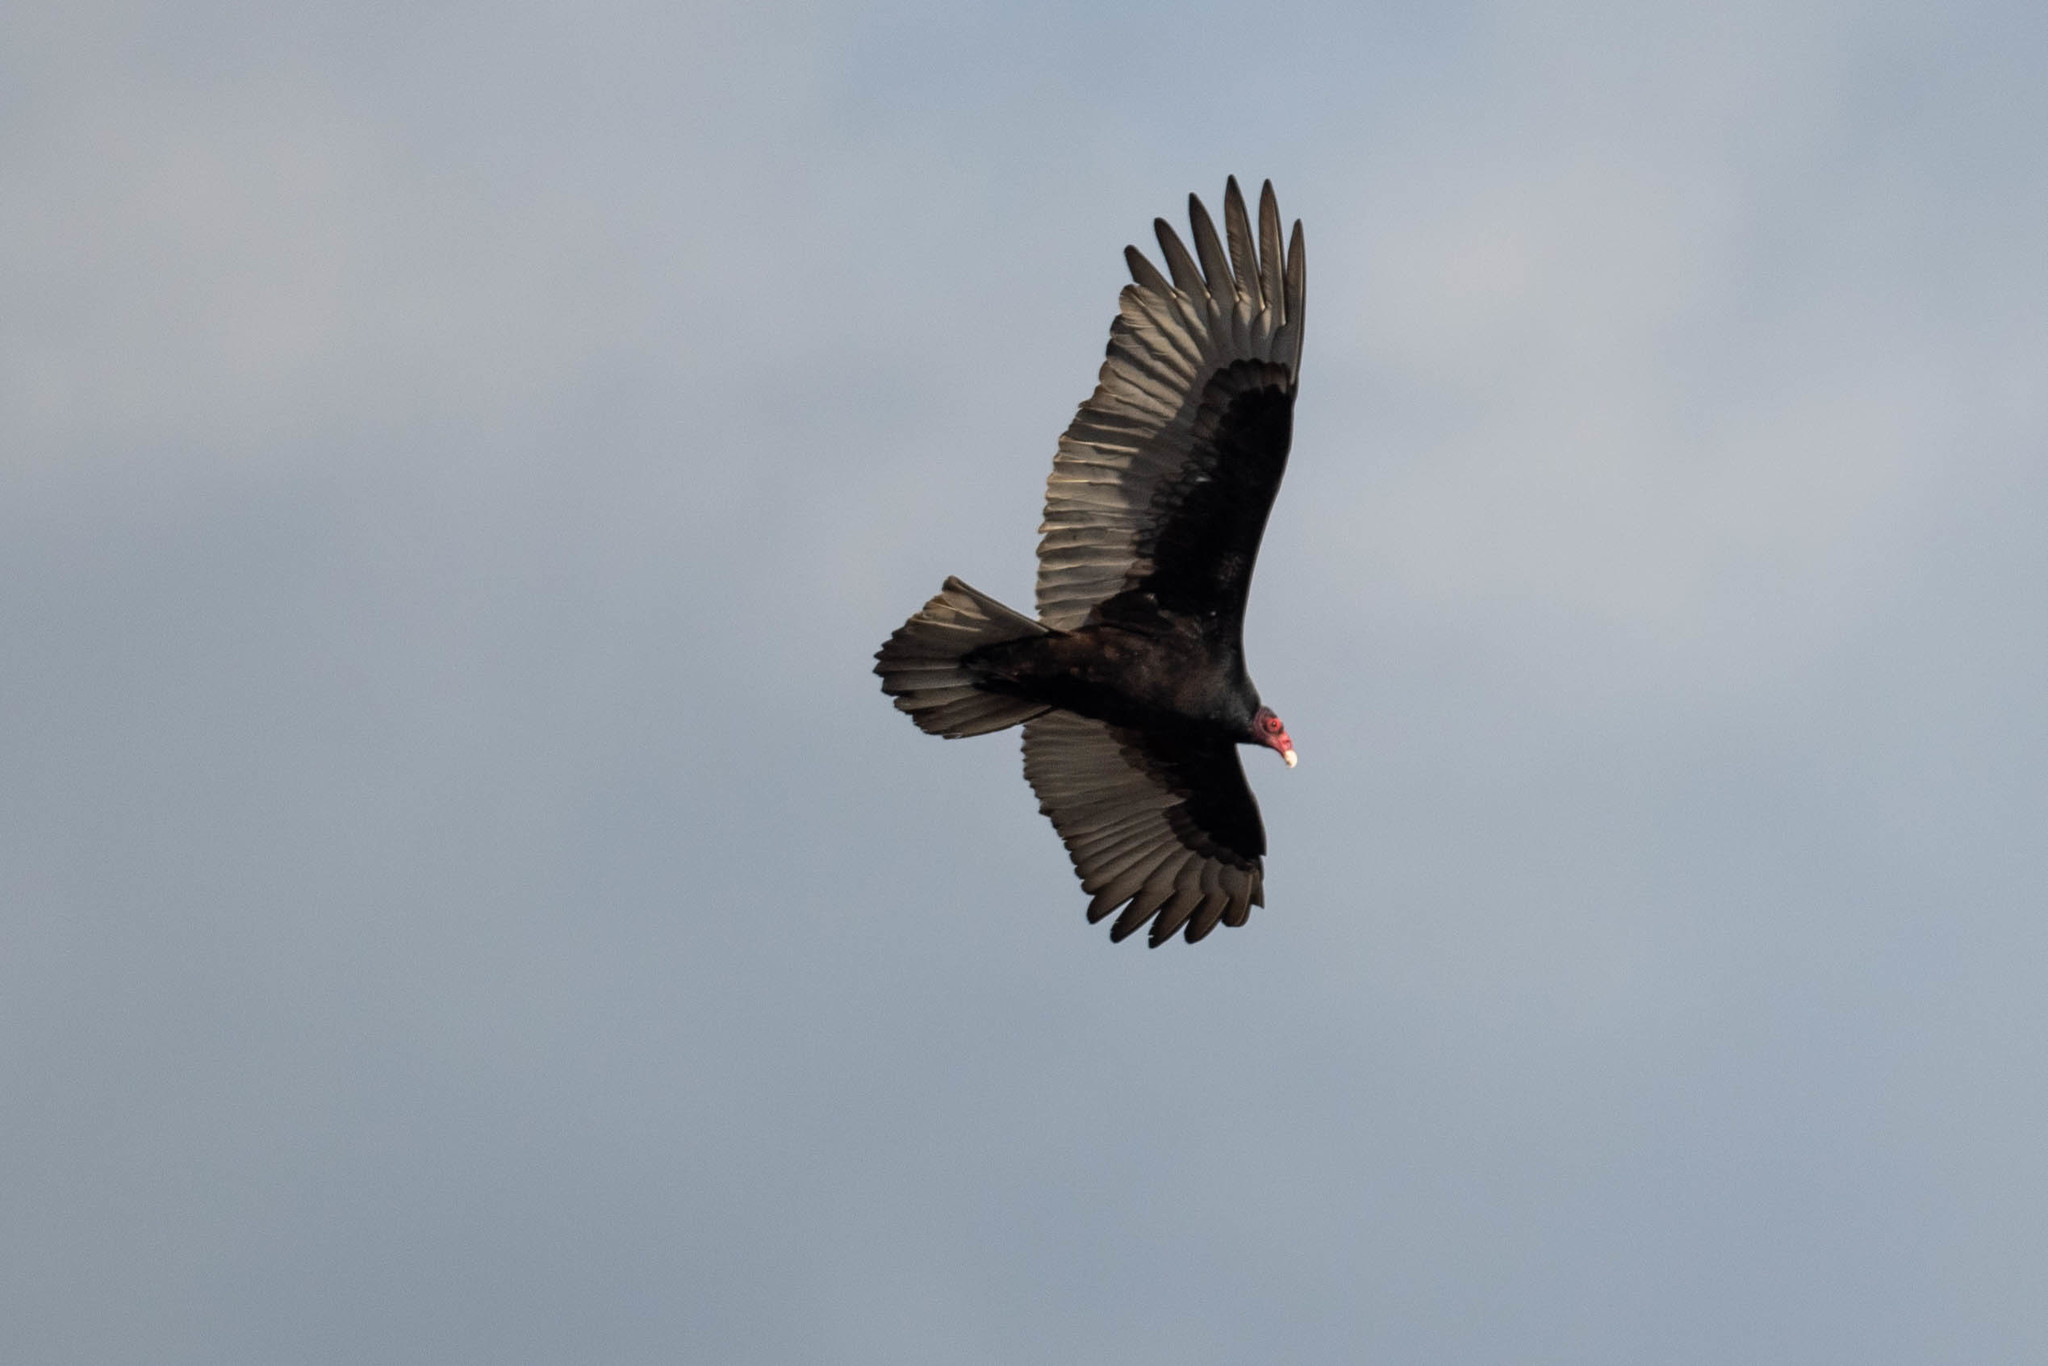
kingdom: Animalia
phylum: Chordata
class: Aves
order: Accipitriformes
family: Cathartidae
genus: Cathartes
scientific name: Cathartes aura
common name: Turkey vulture
